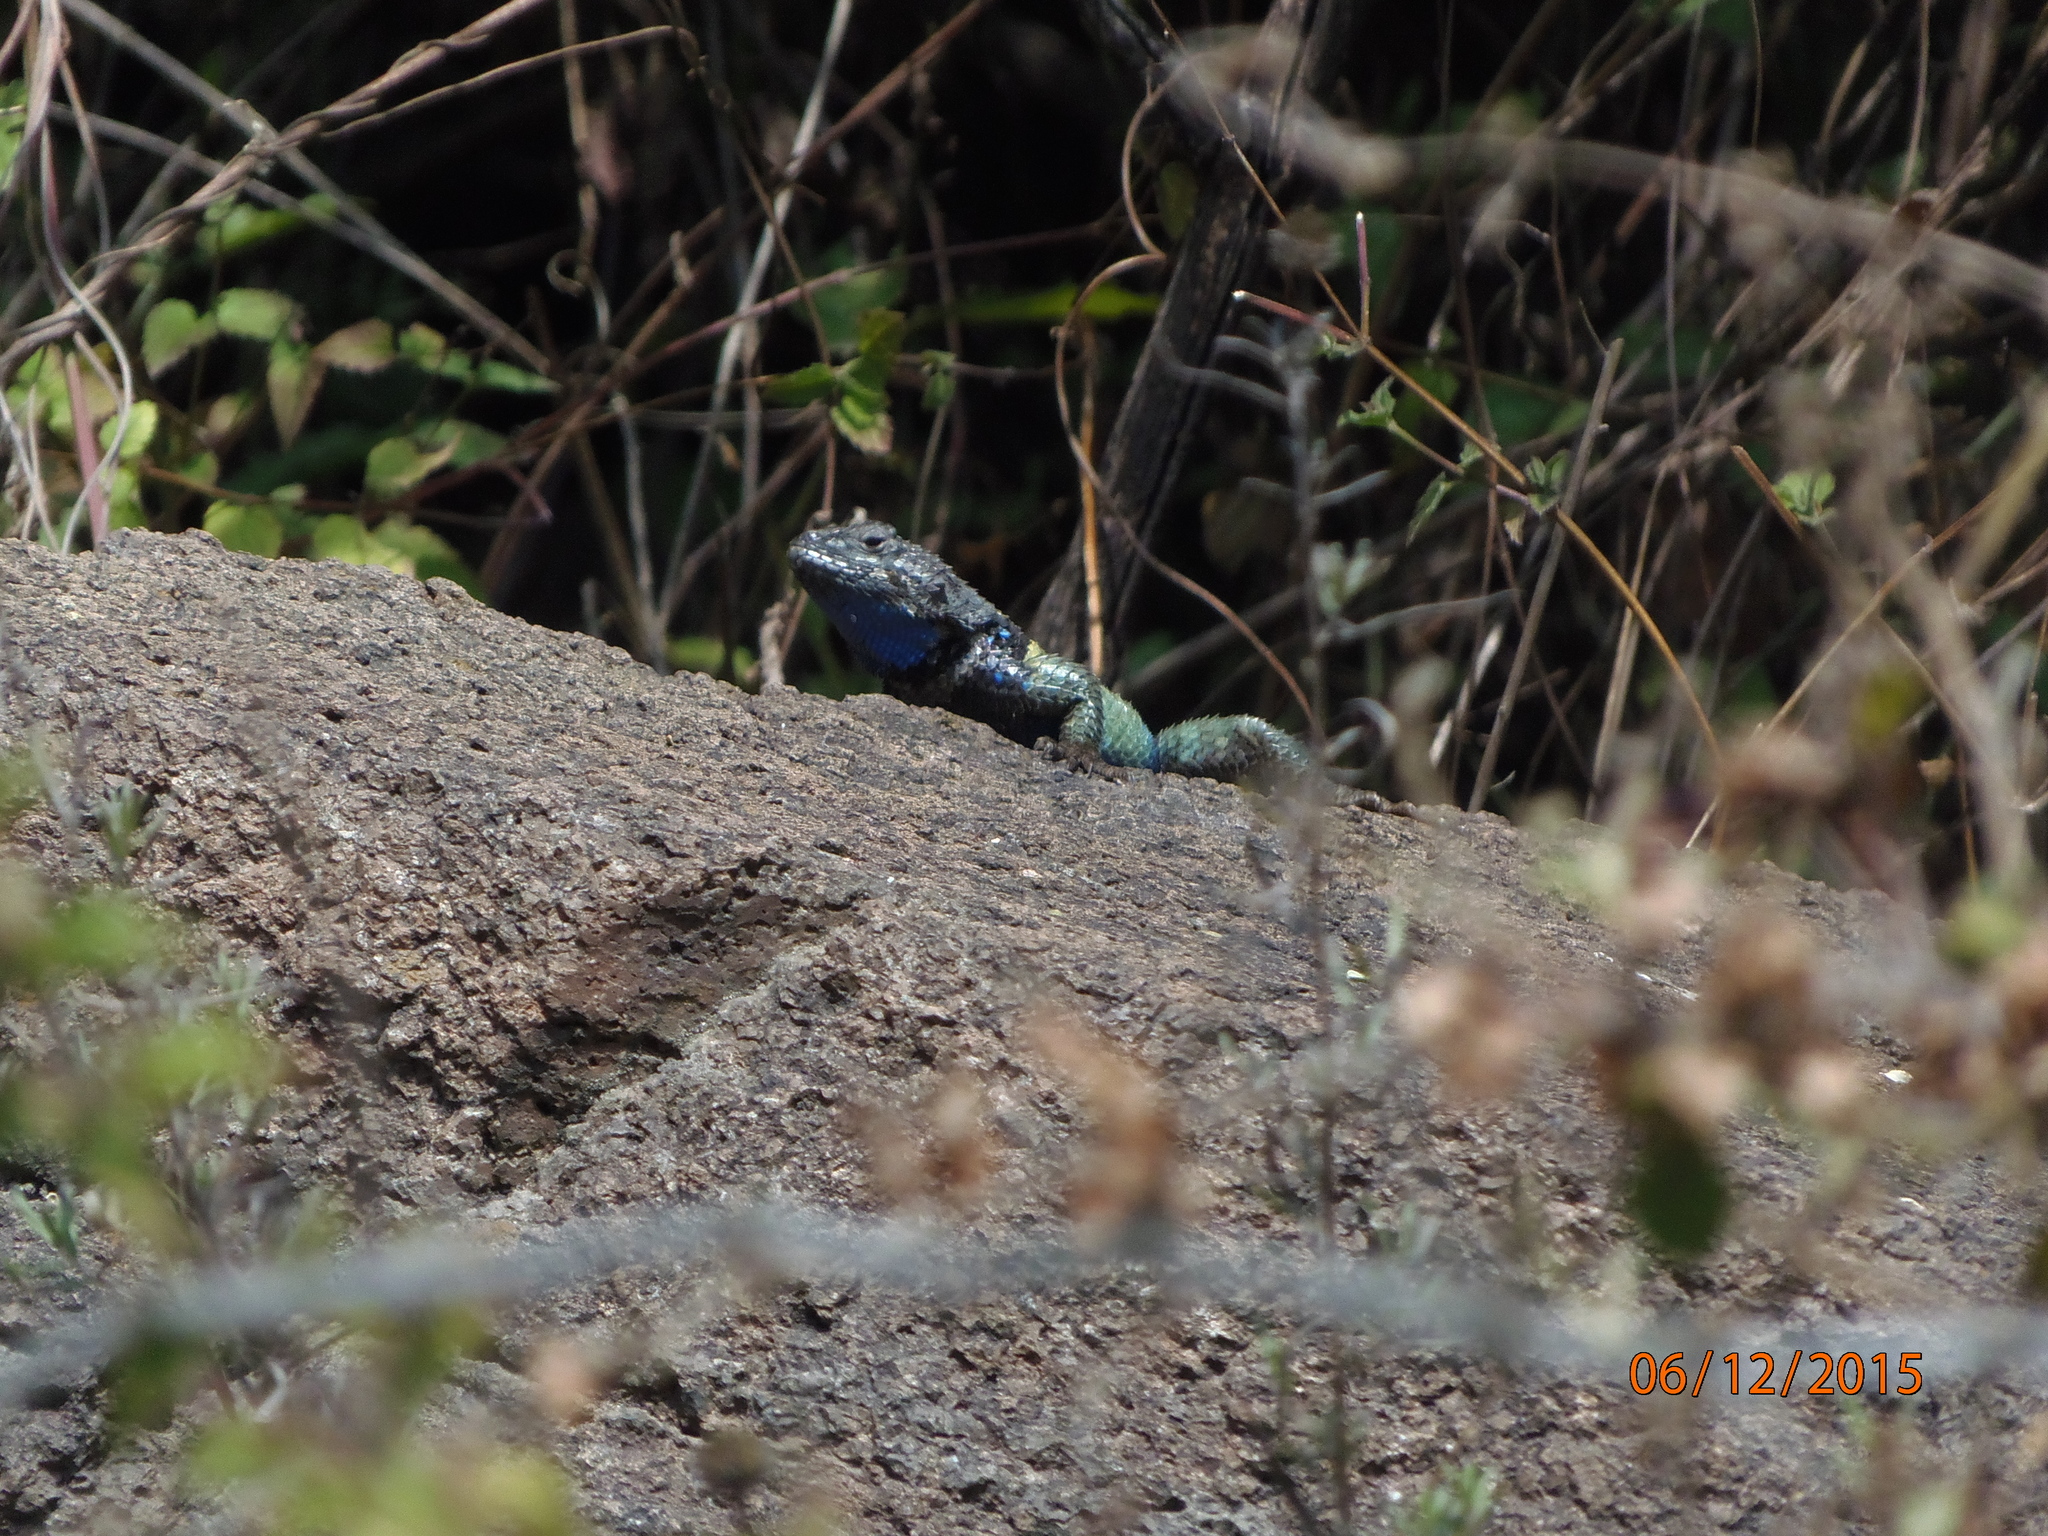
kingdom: Animalia
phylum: Chordata
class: Squamata
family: Phrynosomatidae
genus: Sceloporus
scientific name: Sceloporus torquatus
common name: Central plateau torquate lizard [melanogaster]
